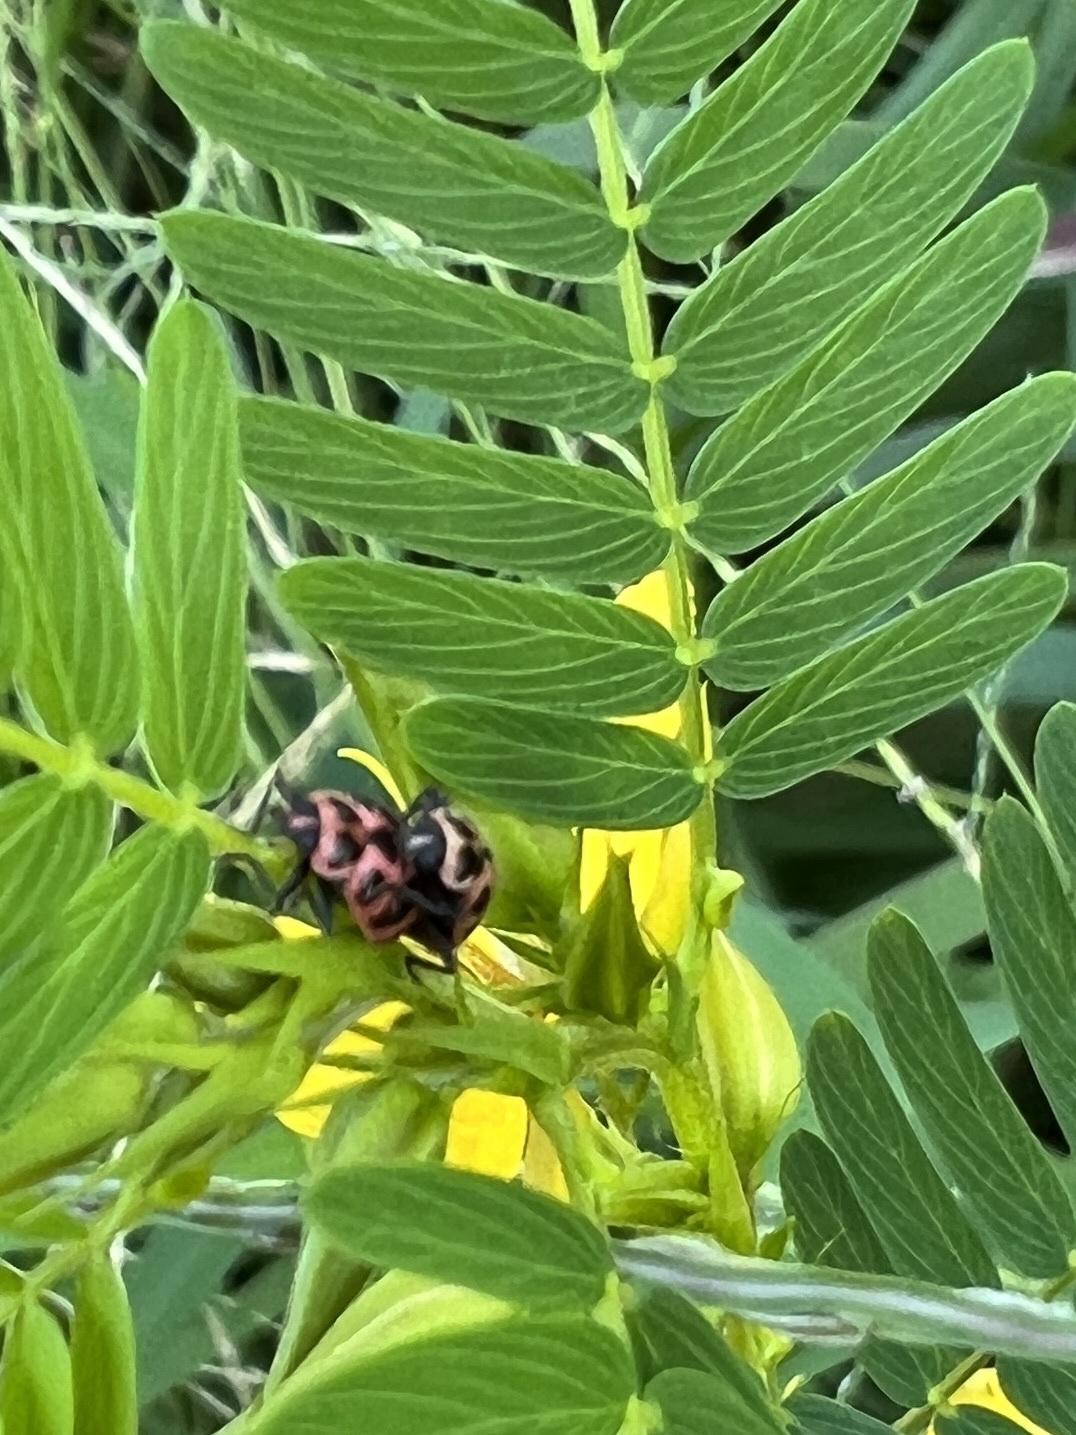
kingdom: Animalia
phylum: Arthropoda
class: Insecta
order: Coleoptera
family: Coccinellidae
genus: Coleomegilla
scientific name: Coleomegilla maculata
